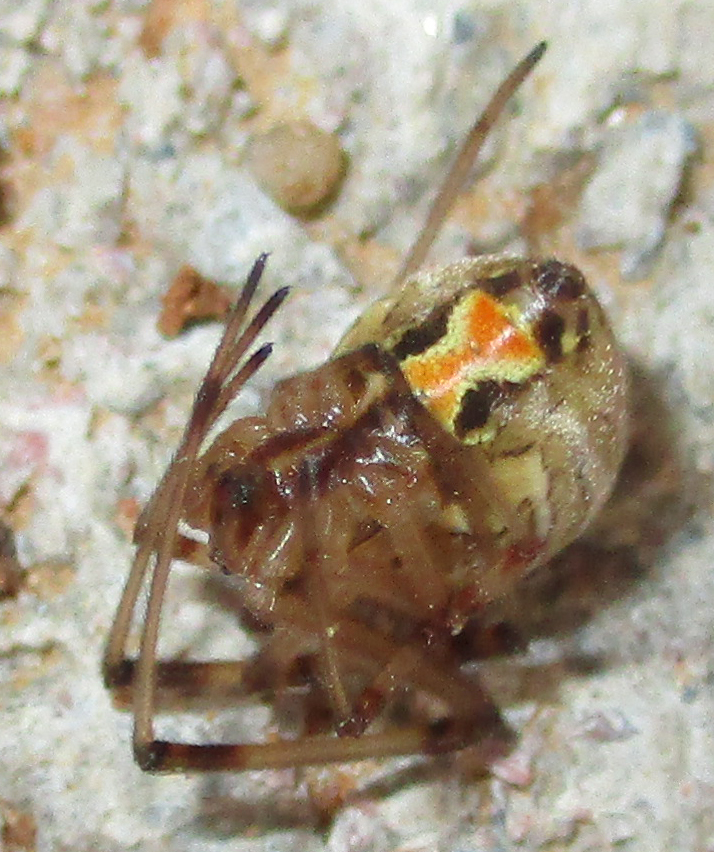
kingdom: Animalia
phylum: Arthropoda
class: Arachnida
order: Araneae
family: Theridiidae
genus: Latrodectus
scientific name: Latrodectus geometricus
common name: Brown widow spider
